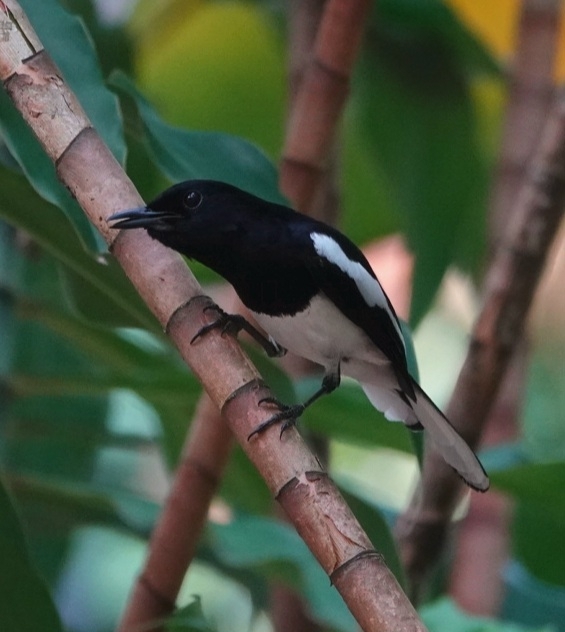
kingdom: Animalia
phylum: Chordata
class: Aves
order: Passeriformes
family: Muscicapidae
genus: Copsychus
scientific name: Copsychus saularis
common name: Oriental magpie-robin
